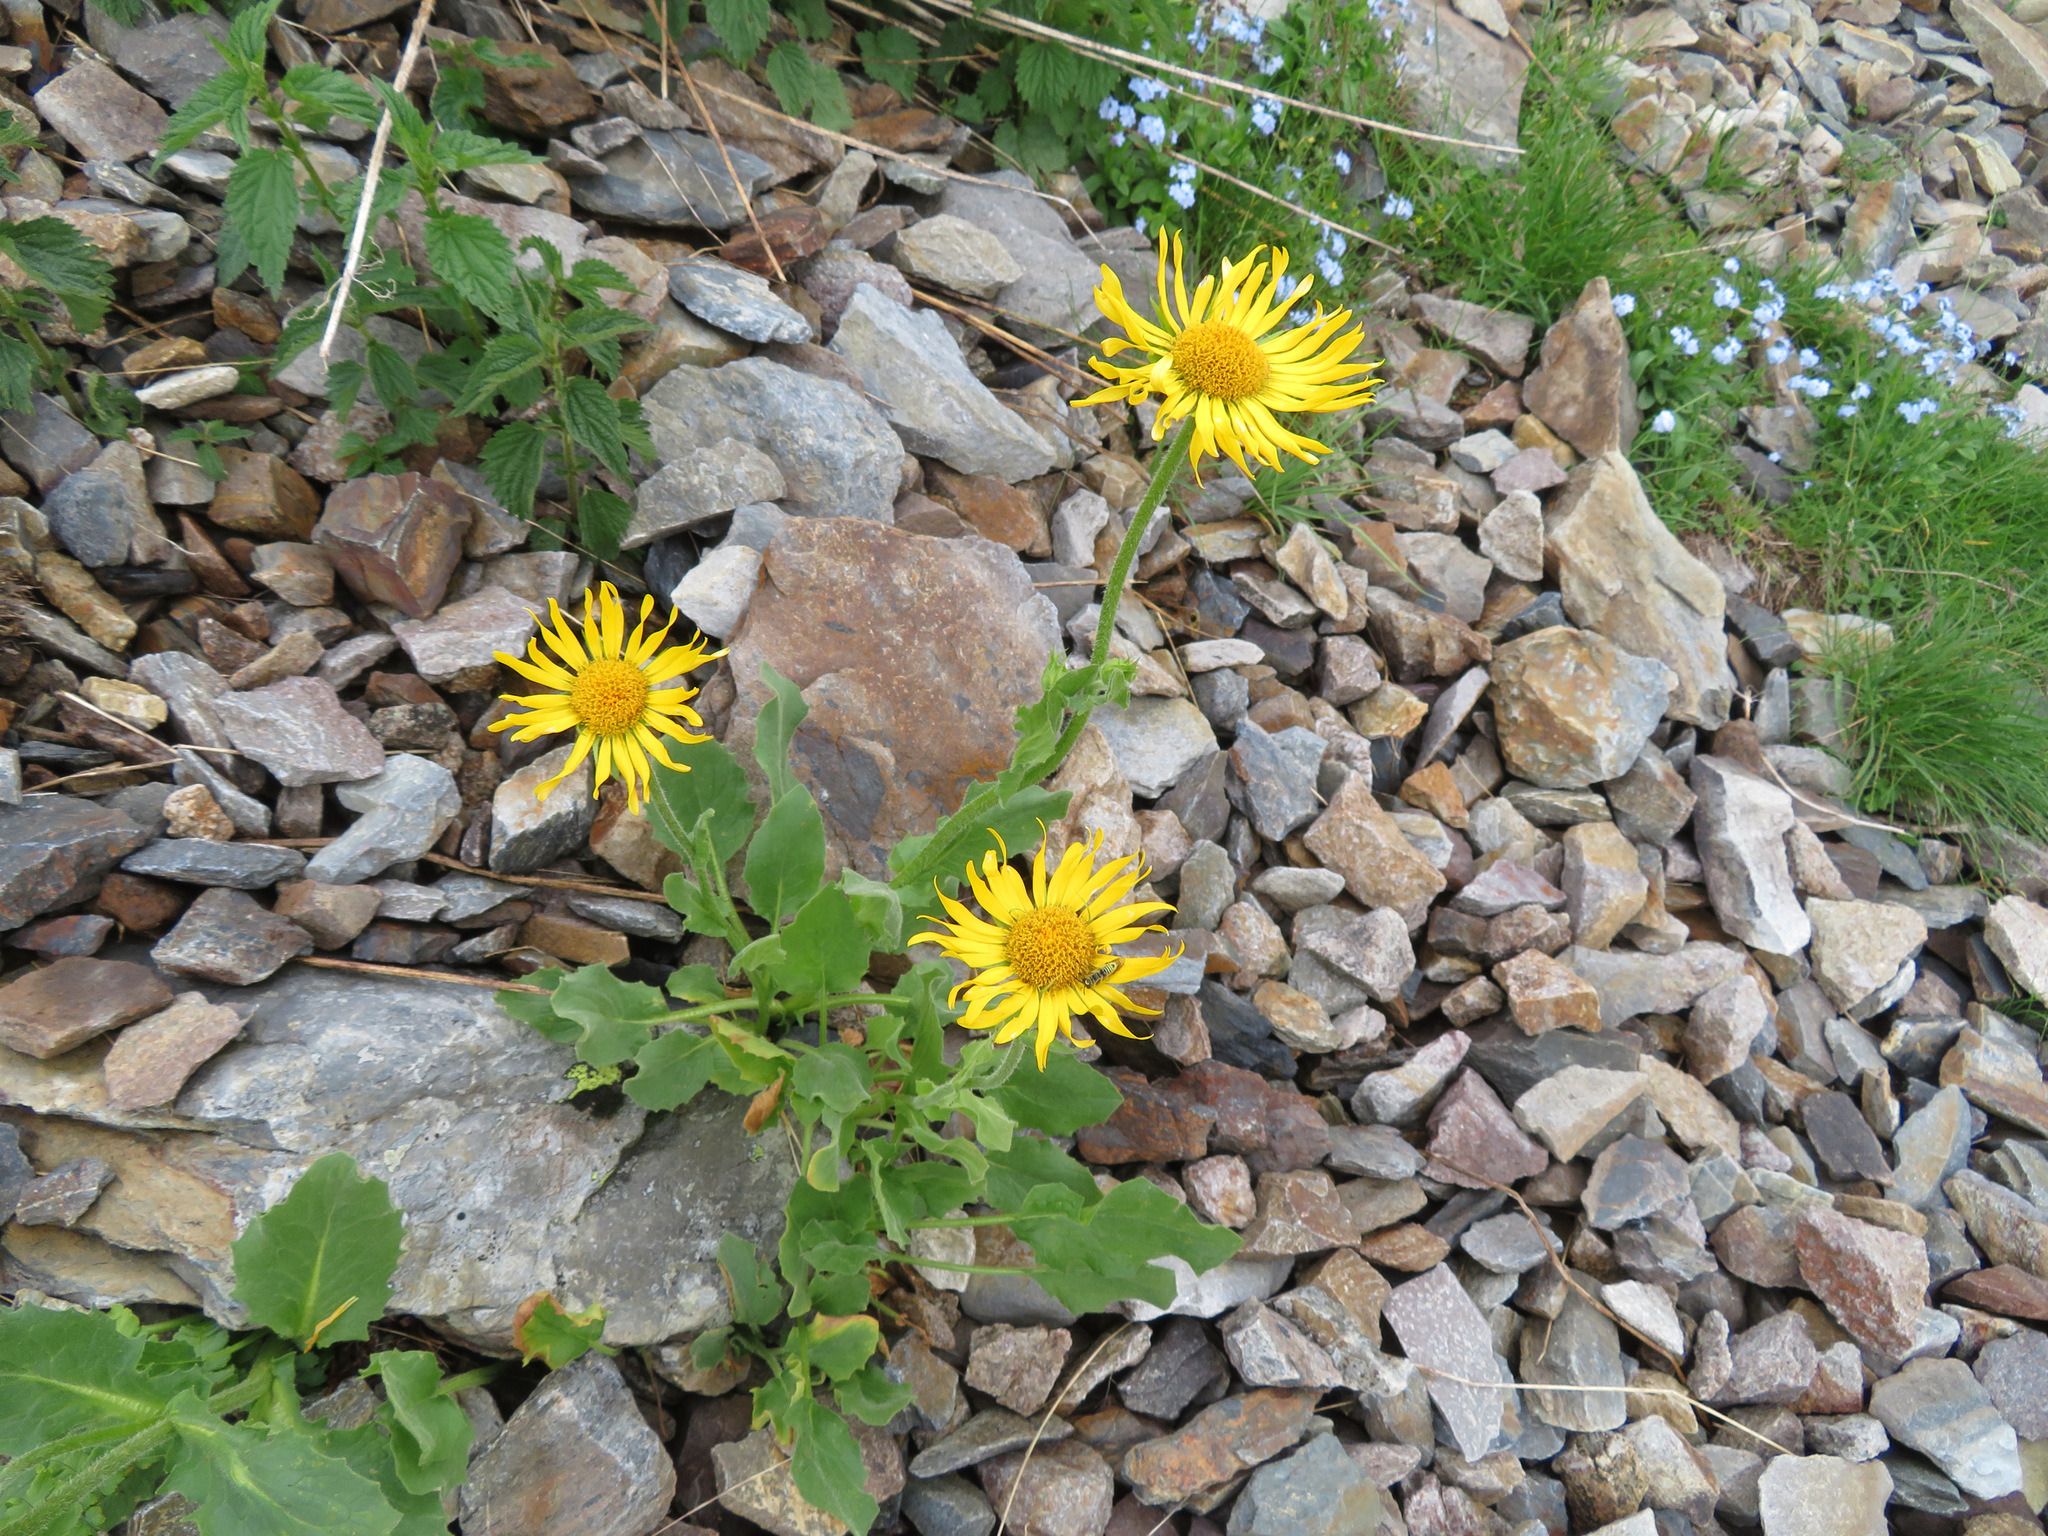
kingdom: Plantae
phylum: Tracheophyta
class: Magnoliopsida
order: Asterales
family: Asteraceae
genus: Doronicum
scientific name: Doronicum grandiflorum
